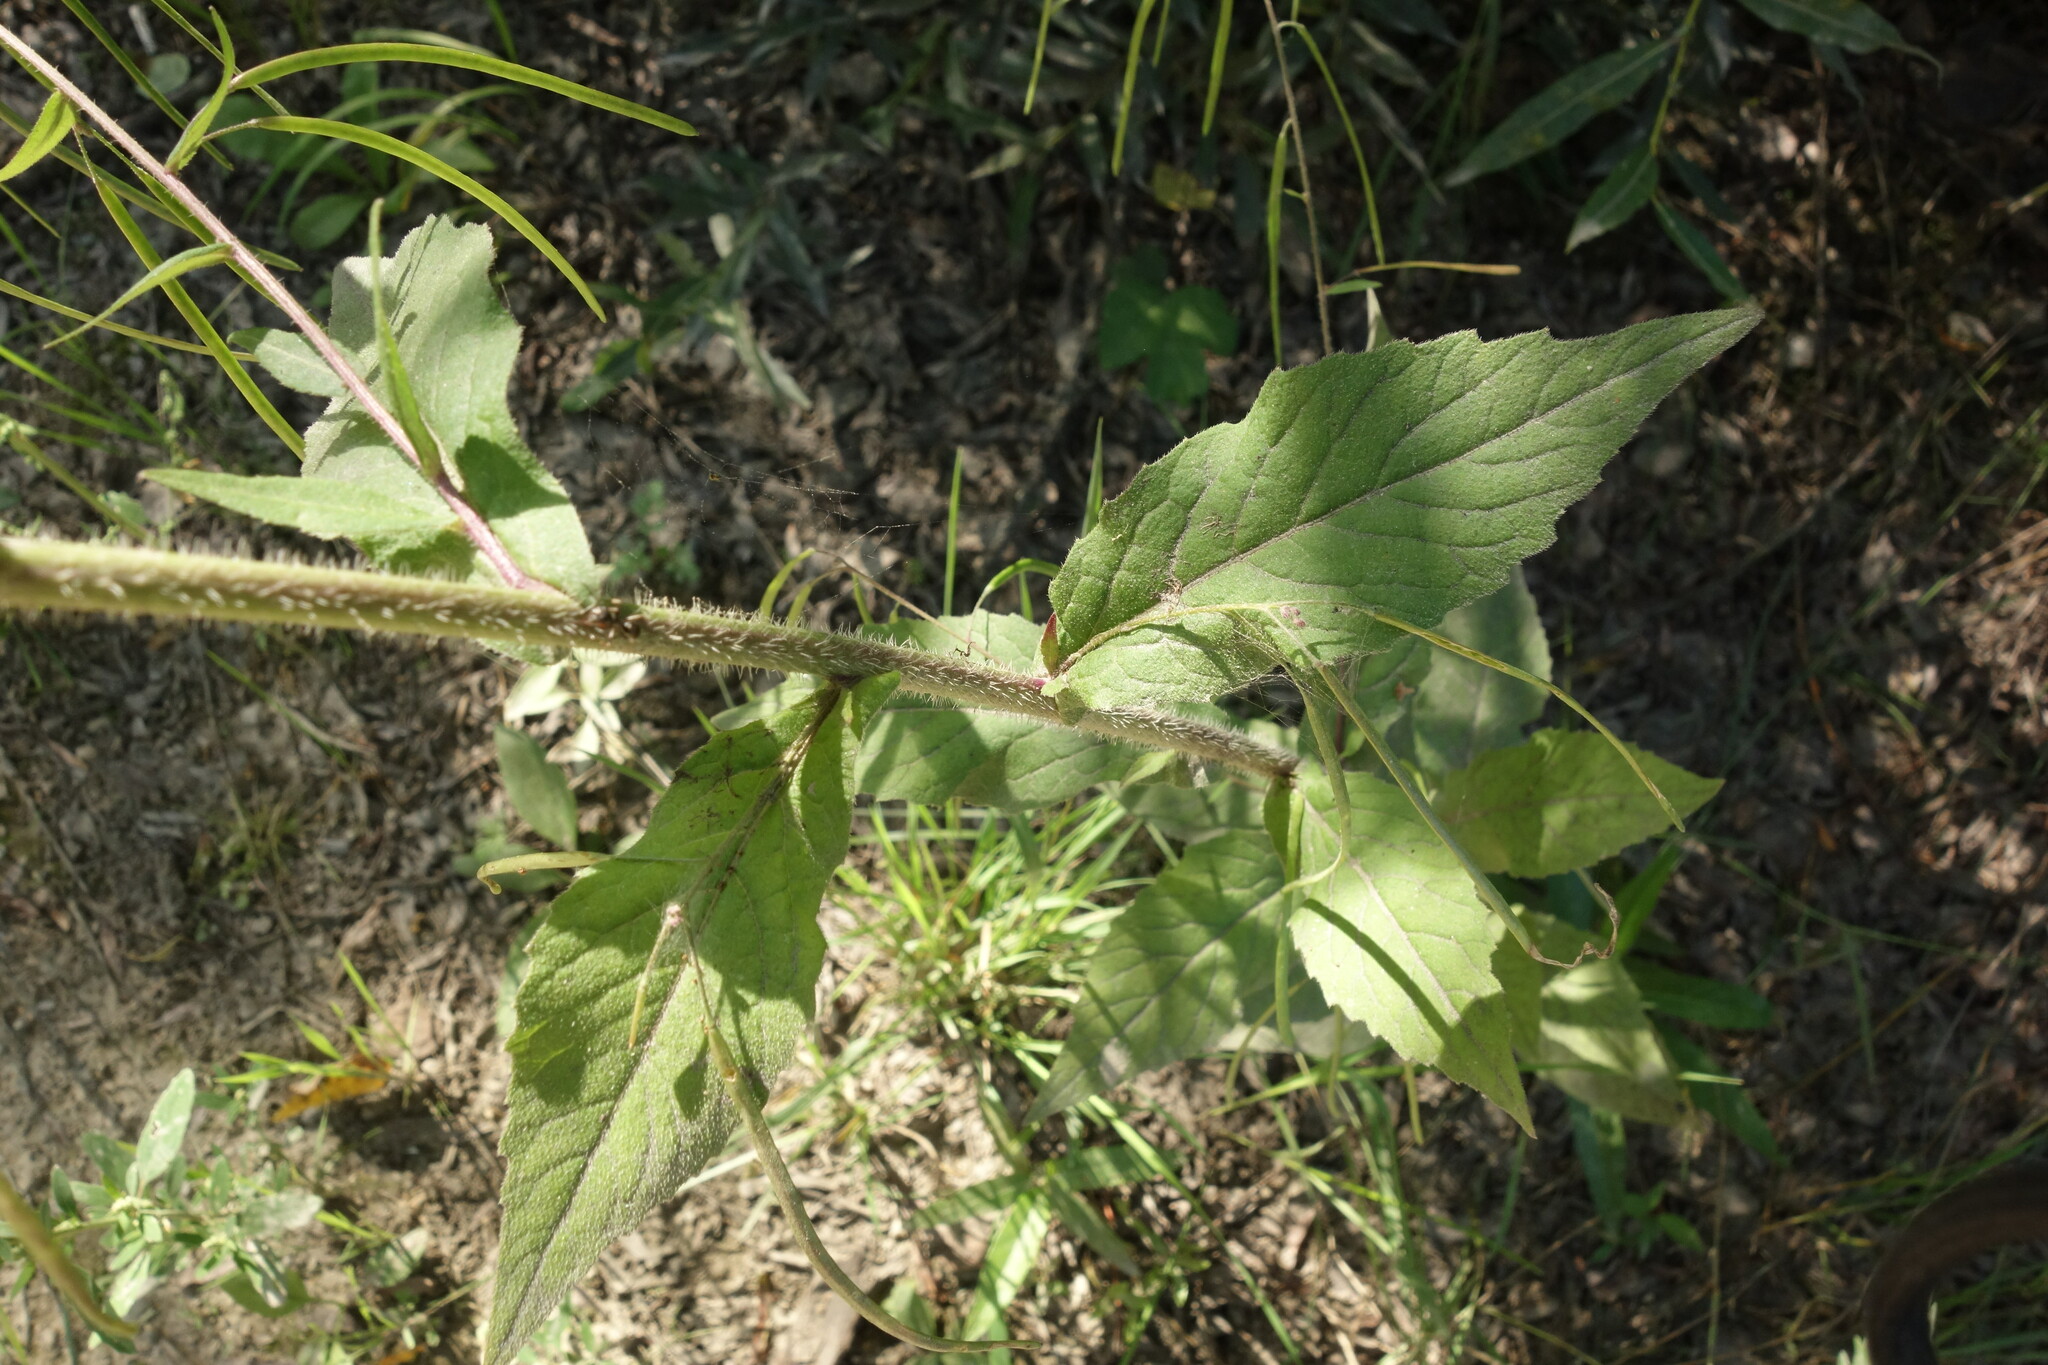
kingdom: Plantae
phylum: Tracheophyta
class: Magnoliopsida
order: Brassicales
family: Brassicaceae
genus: Catolobus
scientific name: Catolobus pendulus
